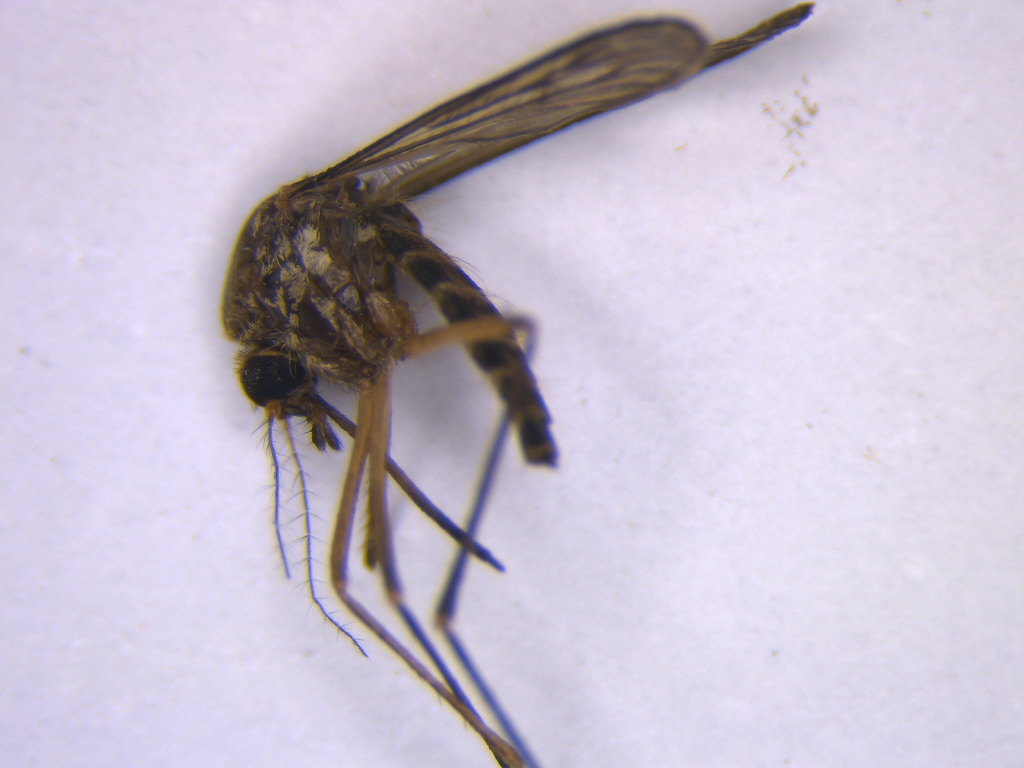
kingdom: Animalia
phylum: Arthropoda
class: Insecta
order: Diptera
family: Culicidae
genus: Aedes
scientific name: Aedes subalbirostris
